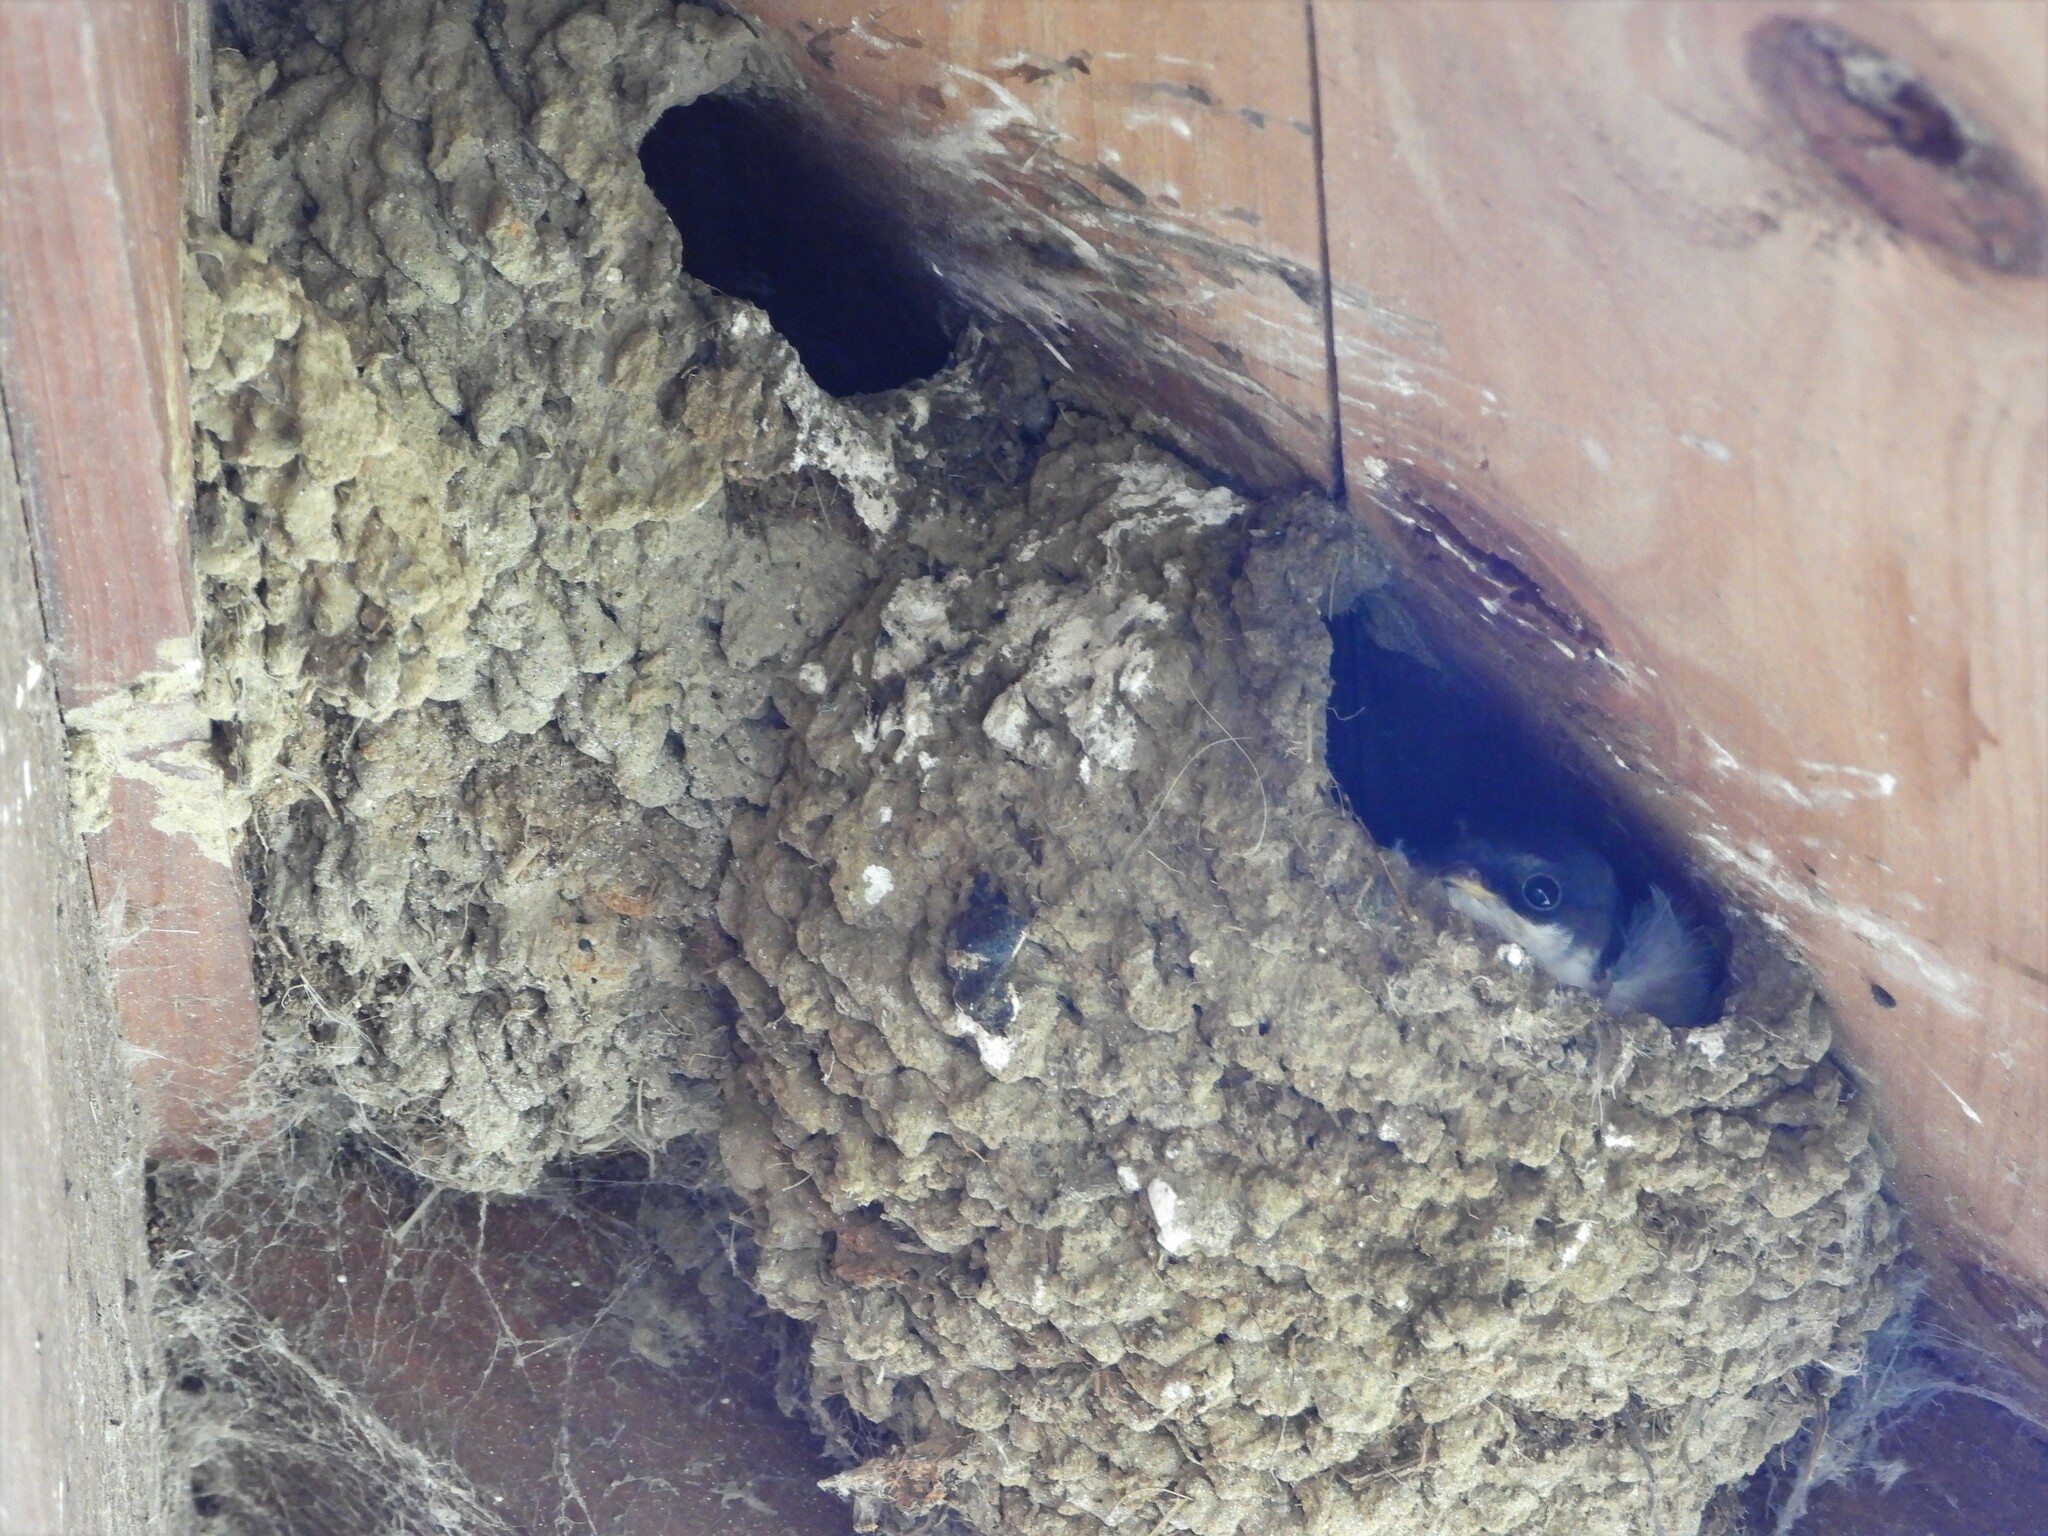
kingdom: Animalia
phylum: Chordata
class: Aves
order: Passeriformes
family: Hirundinidae
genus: Delichon
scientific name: Delichon urbicum
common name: Common house martin
